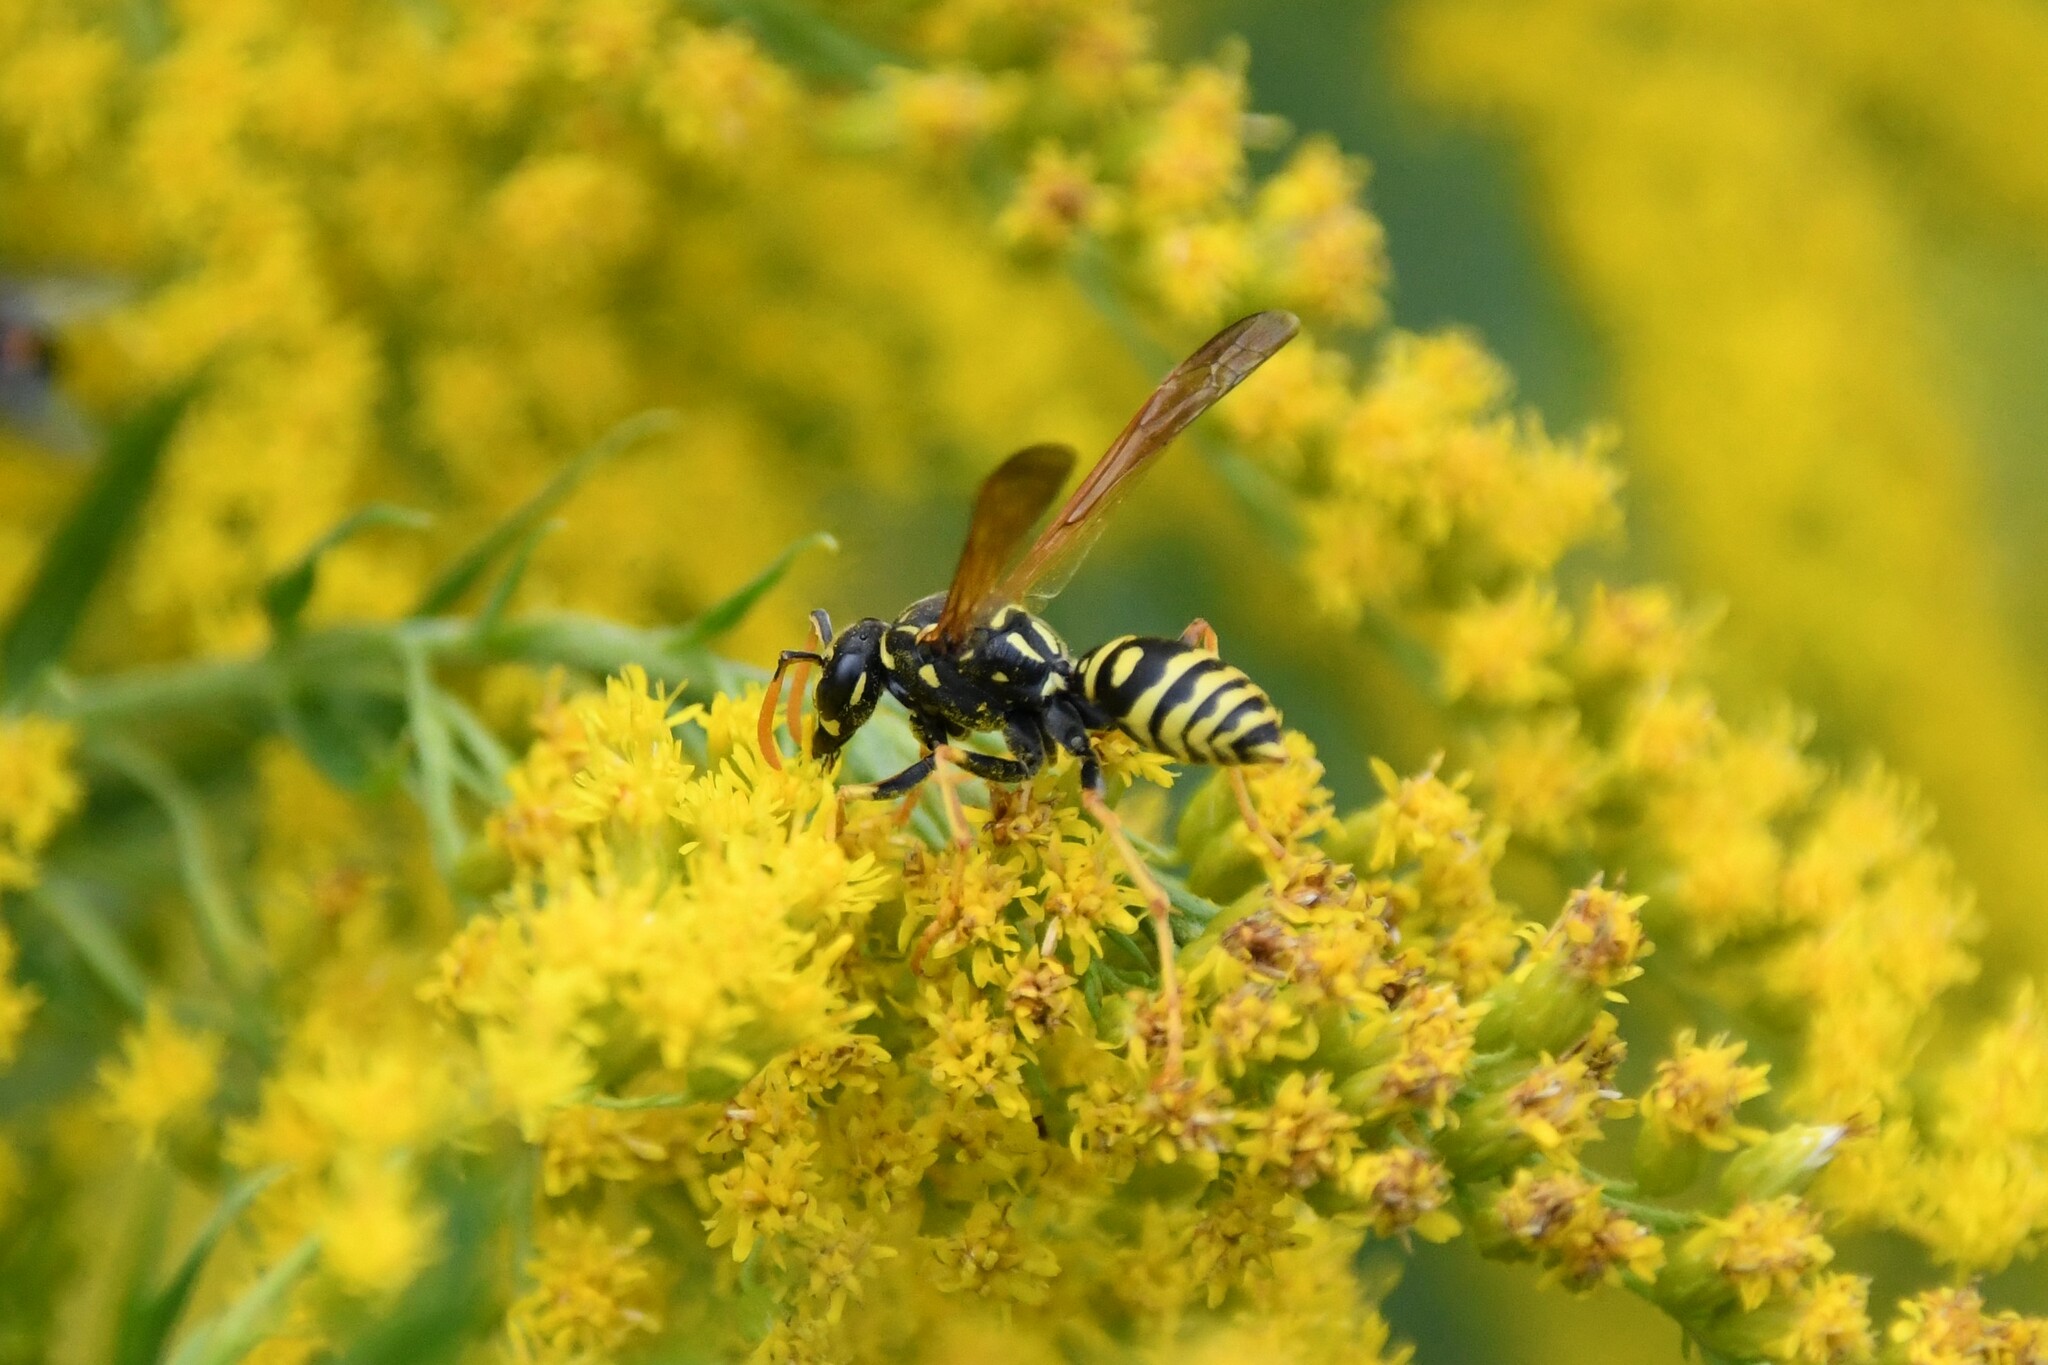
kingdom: Animalia
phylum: Arthropoda
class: Insecta
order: Hymenoptera
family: Eumenidae
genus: Polistes
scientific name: Polistes dominula
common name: Paper wasp
